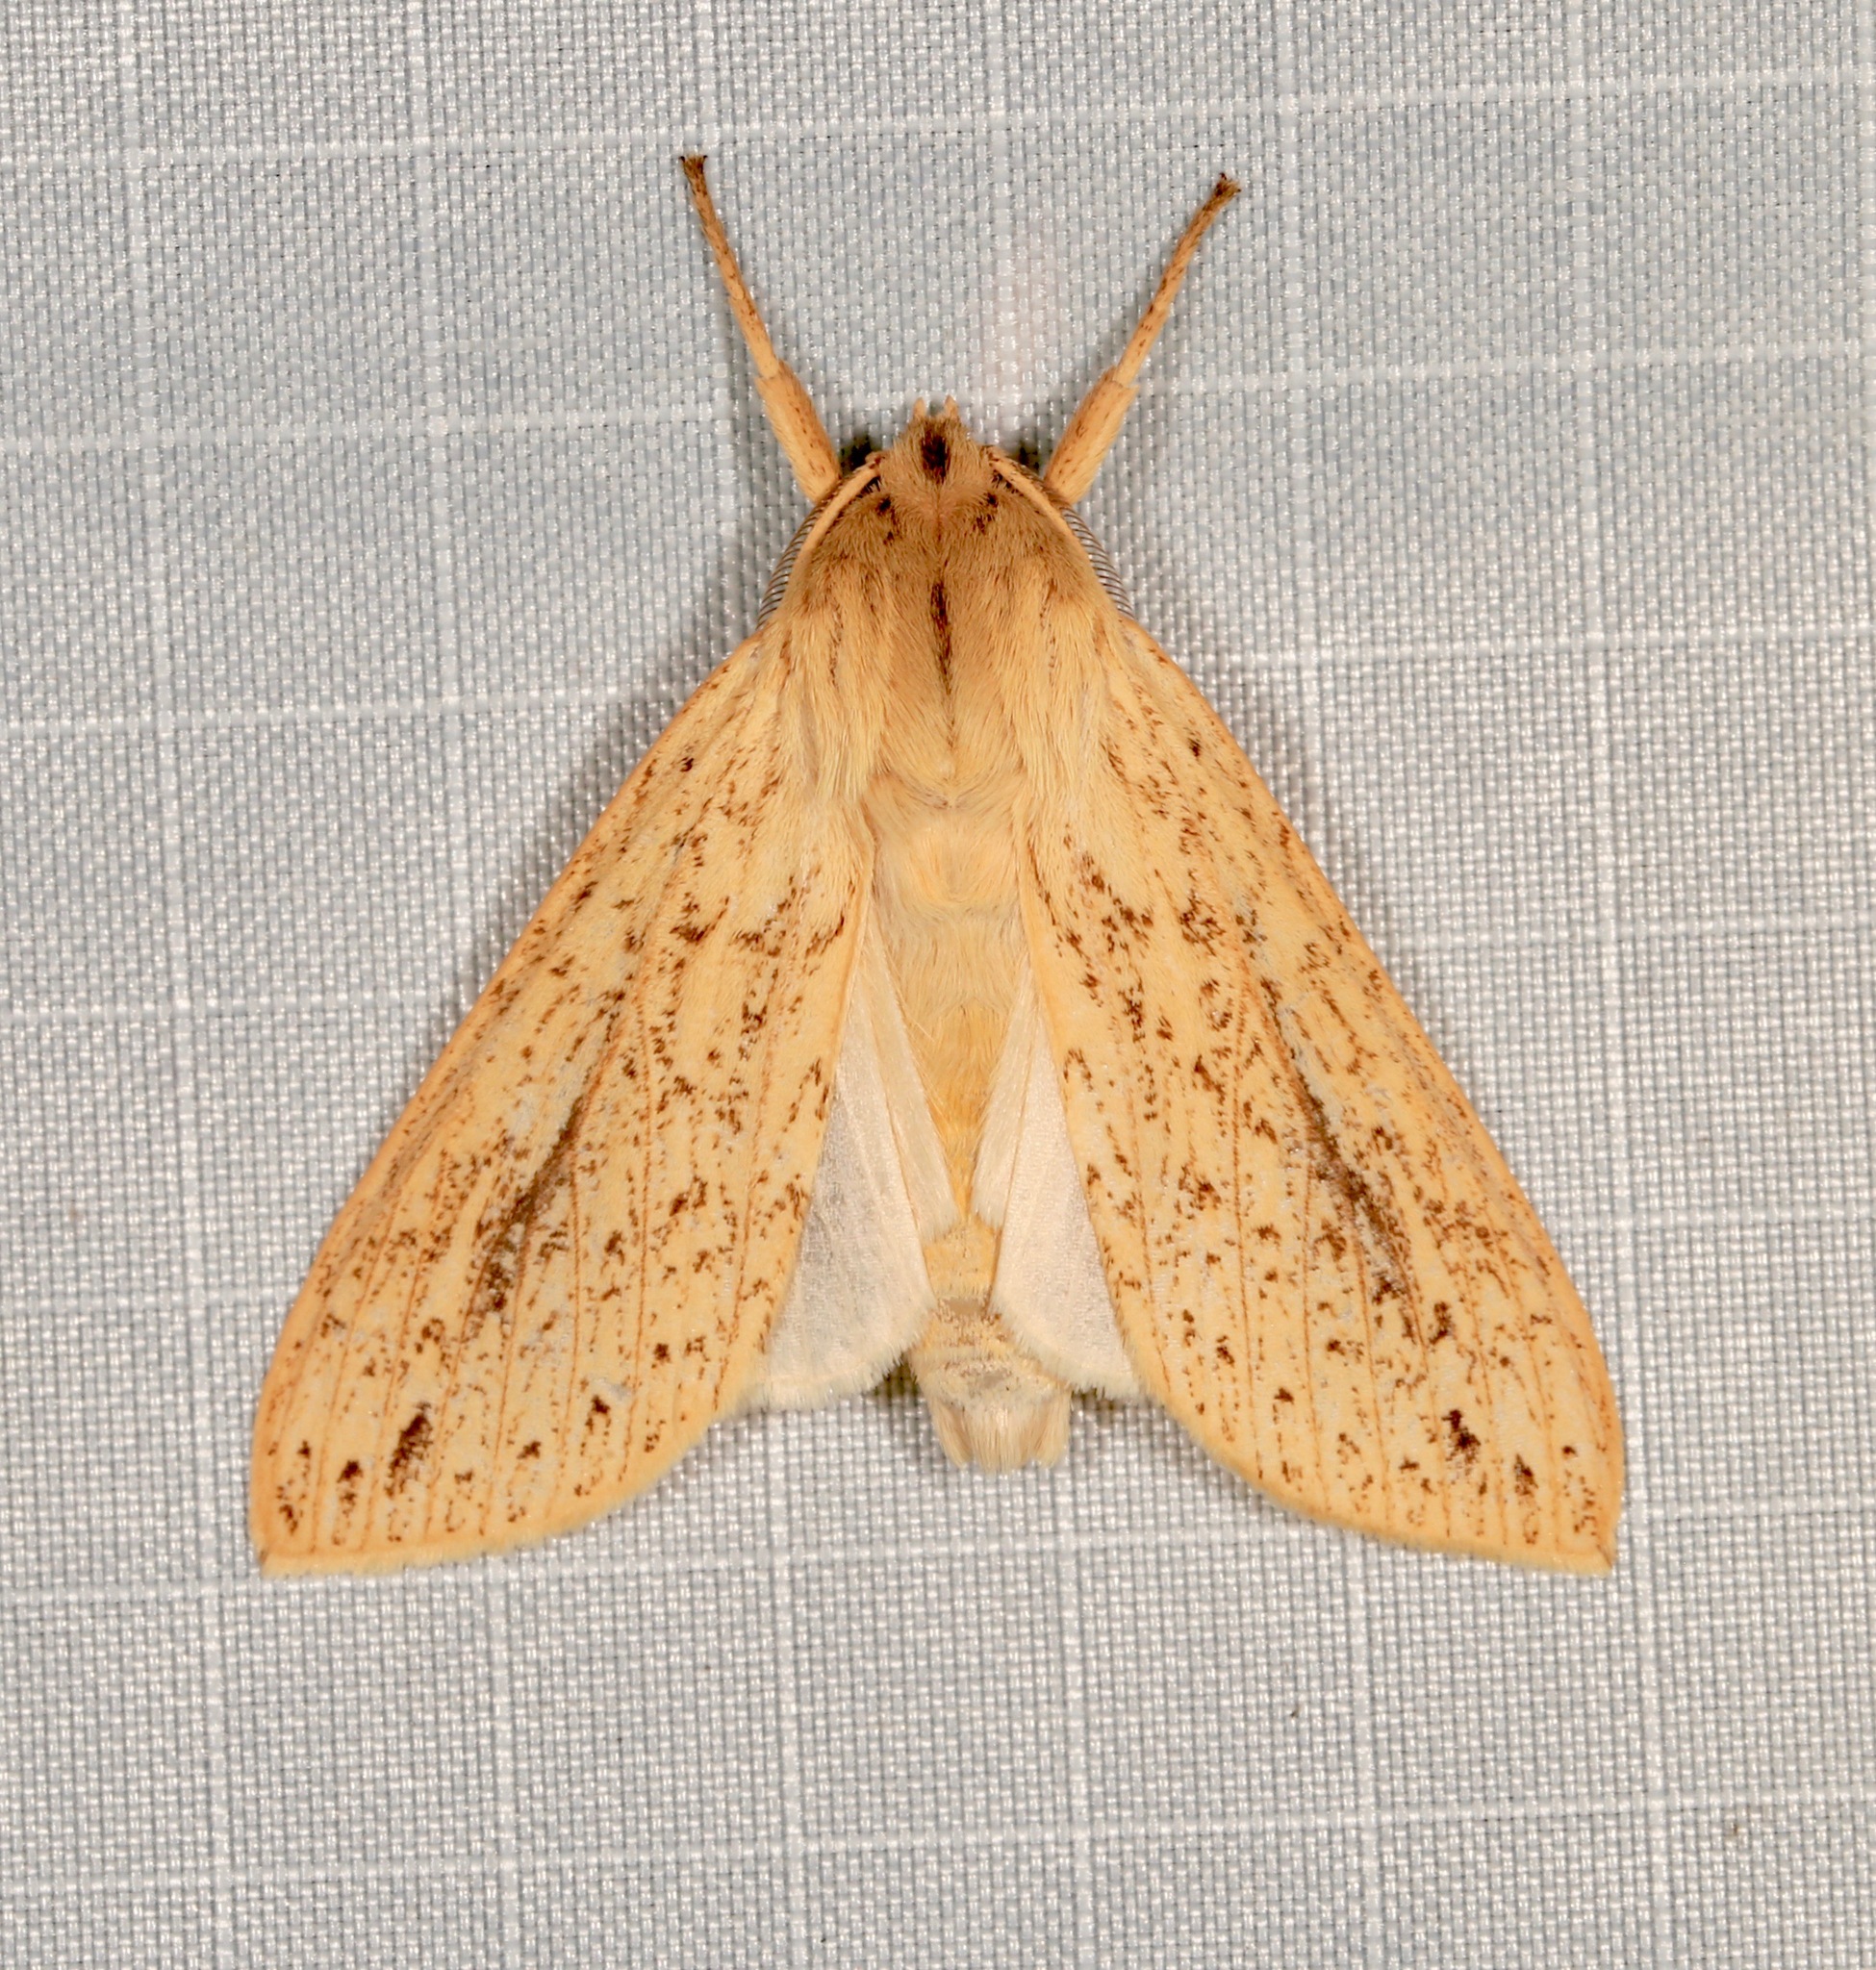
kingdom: Animalia
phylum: Arthropoda
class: Insecta
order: Lepidoptera
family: Erebidae
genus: Leucanopsis
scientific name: Leucanopsis longa
